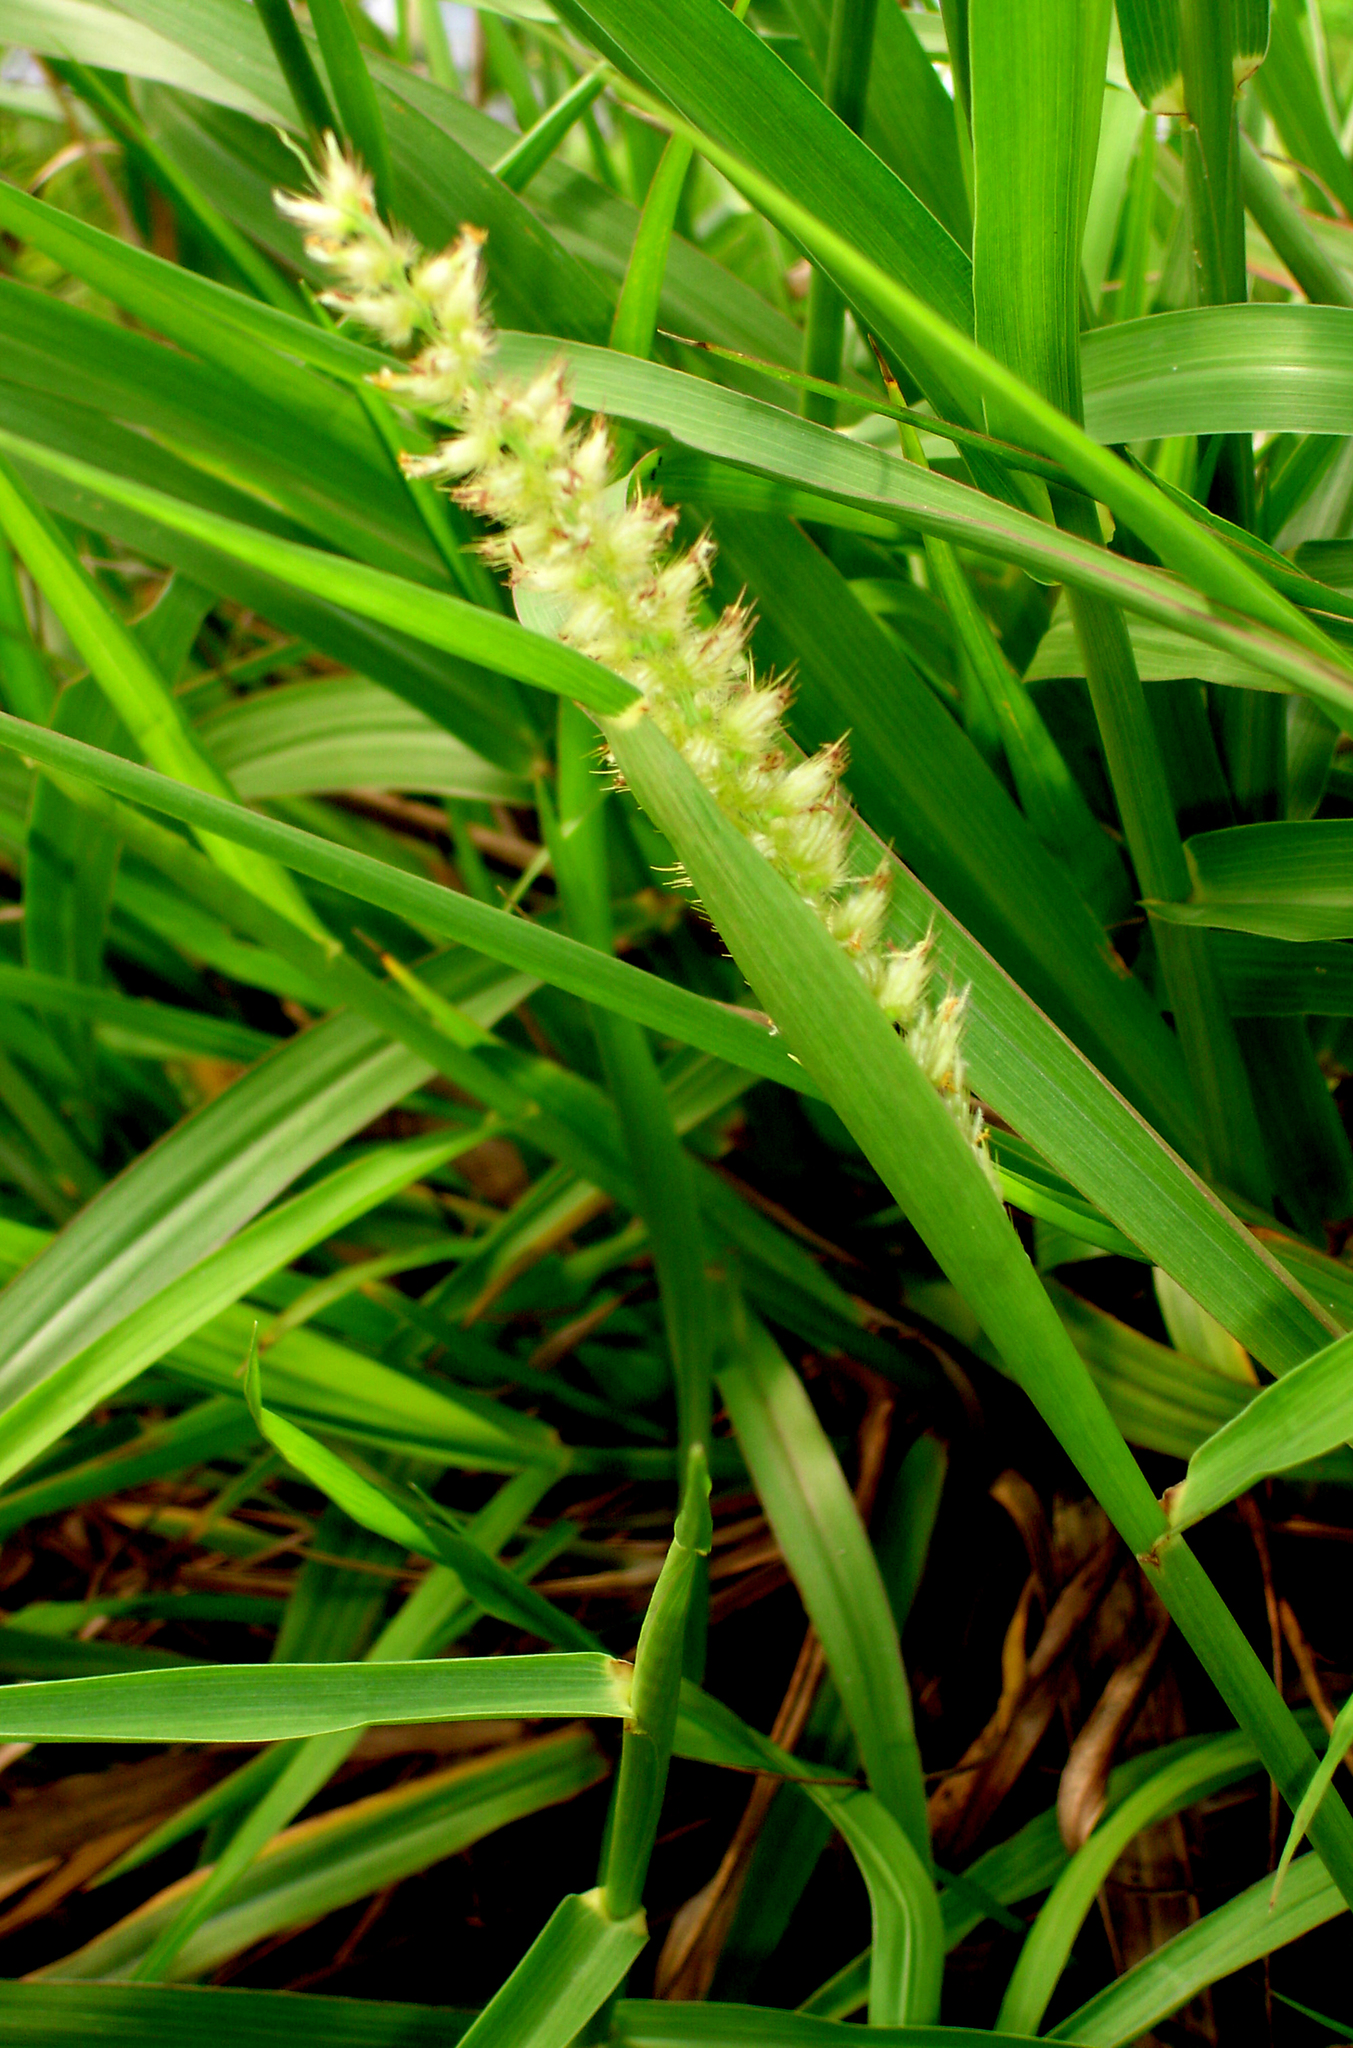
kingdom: Plantae
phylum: Tracheophyta
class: Liliopsida
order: Poales
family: Poaceae
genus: Cenchrus
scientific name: Cenchrus caliculatus
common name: Large bur grass
